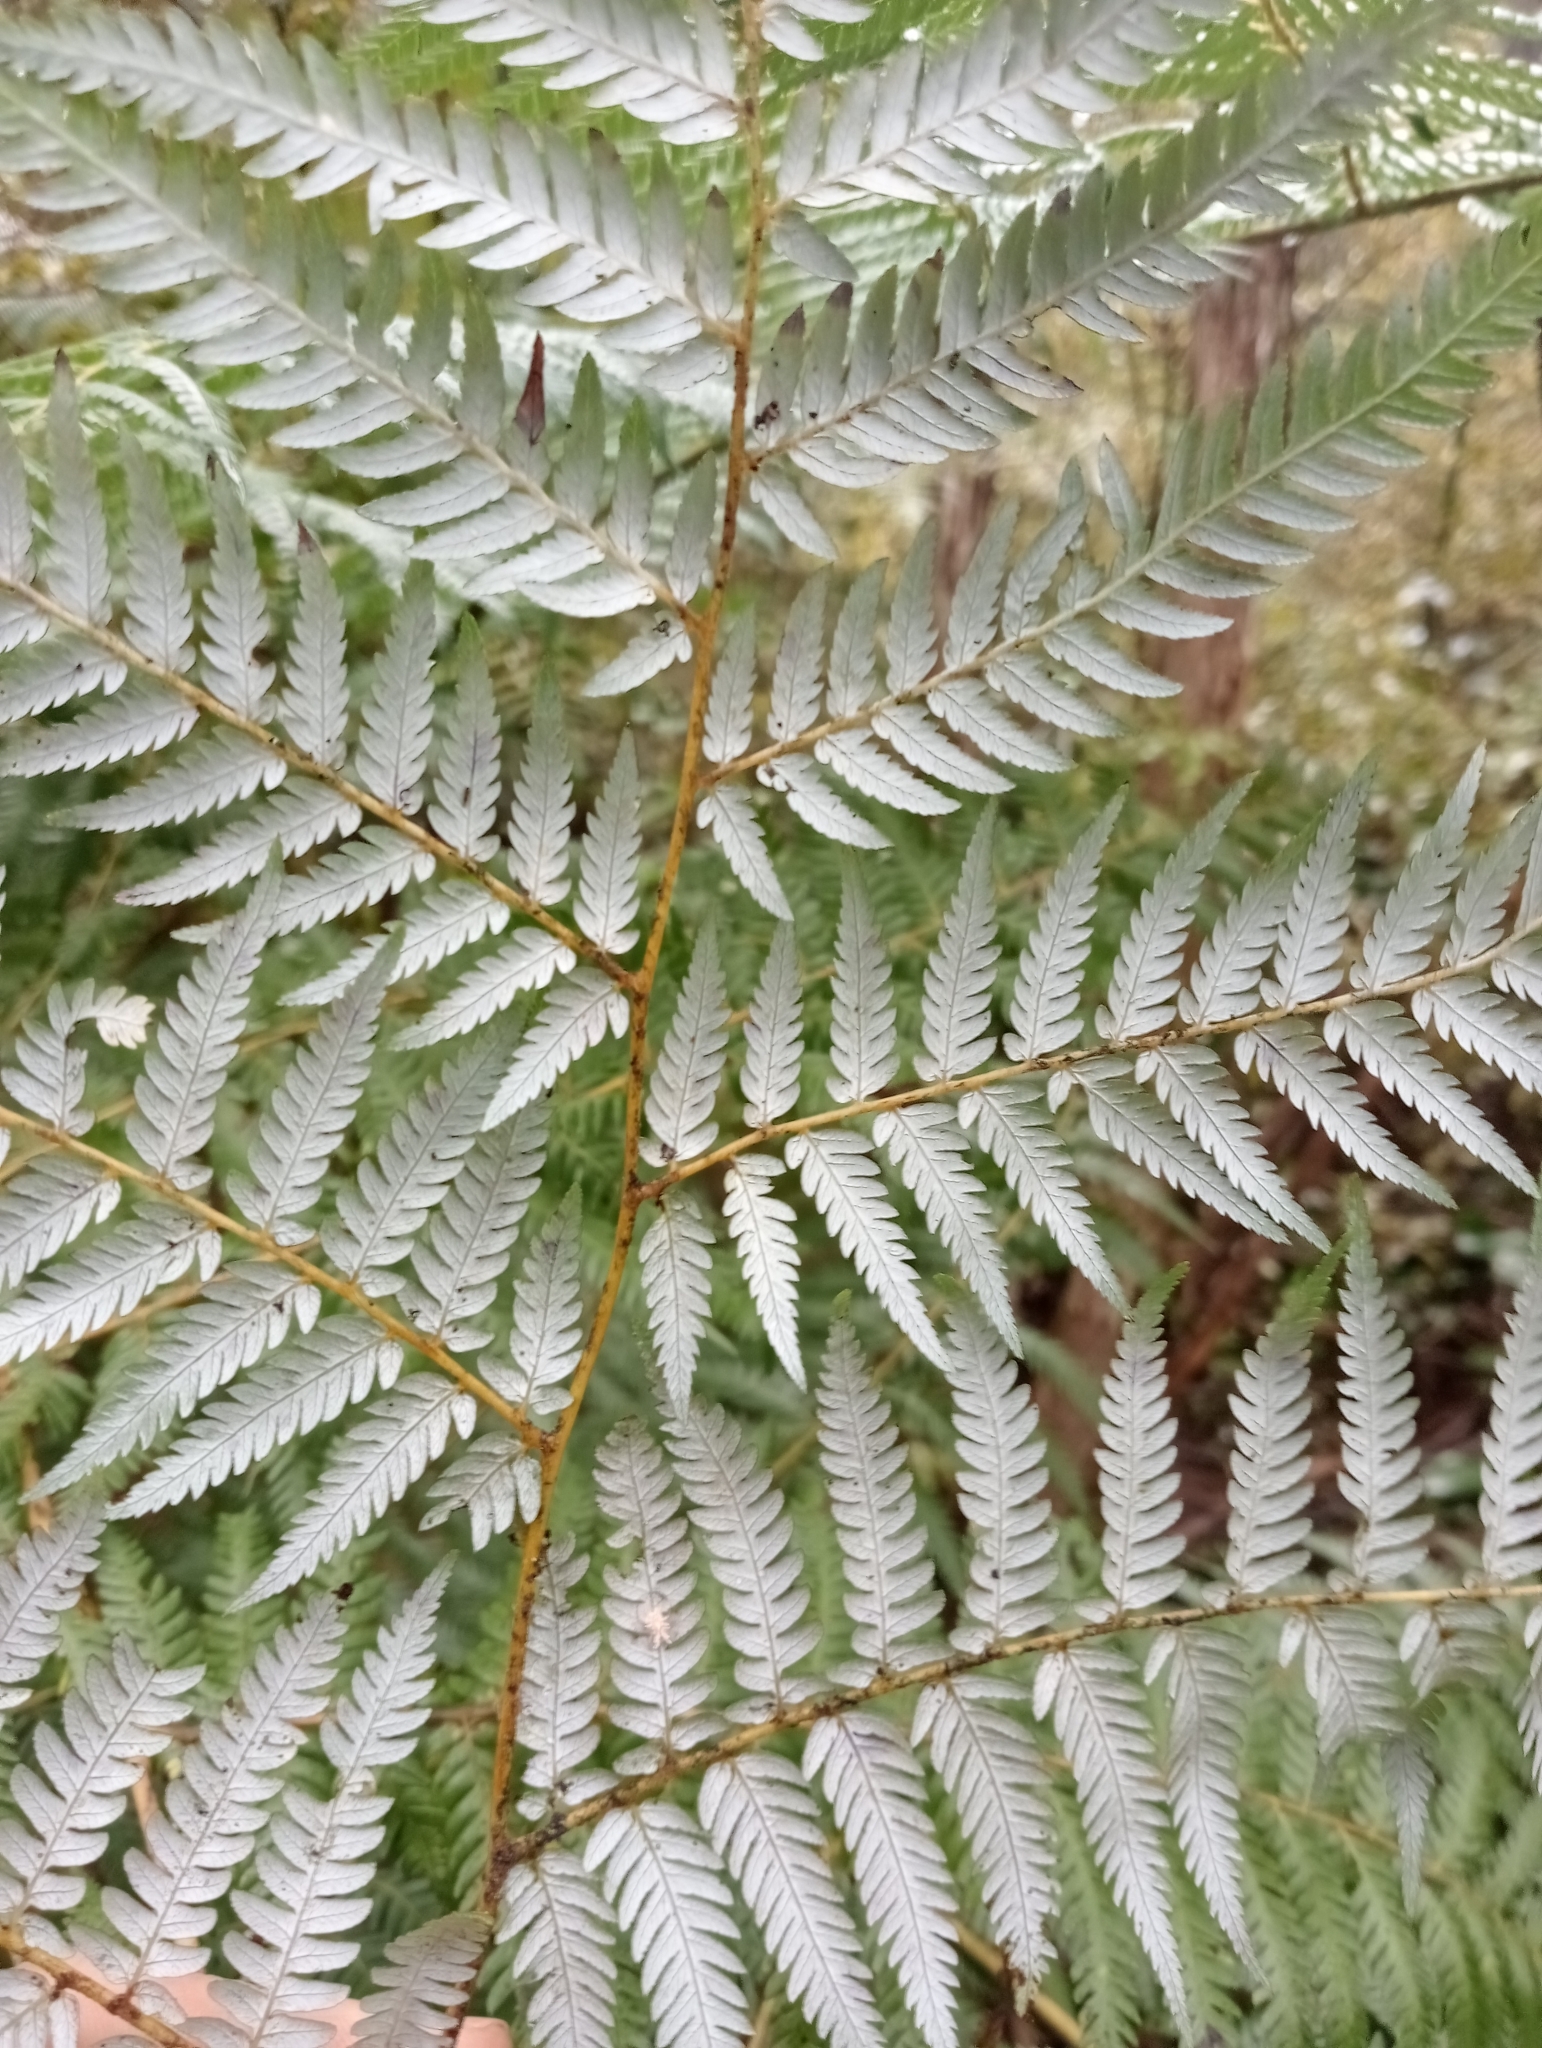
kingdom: Plantae
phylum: Tracheophyta
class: Polypodiopsida
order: Cyatheales
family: Cyatheaceae
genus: Alsophila
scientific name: Alsophila dealbata
